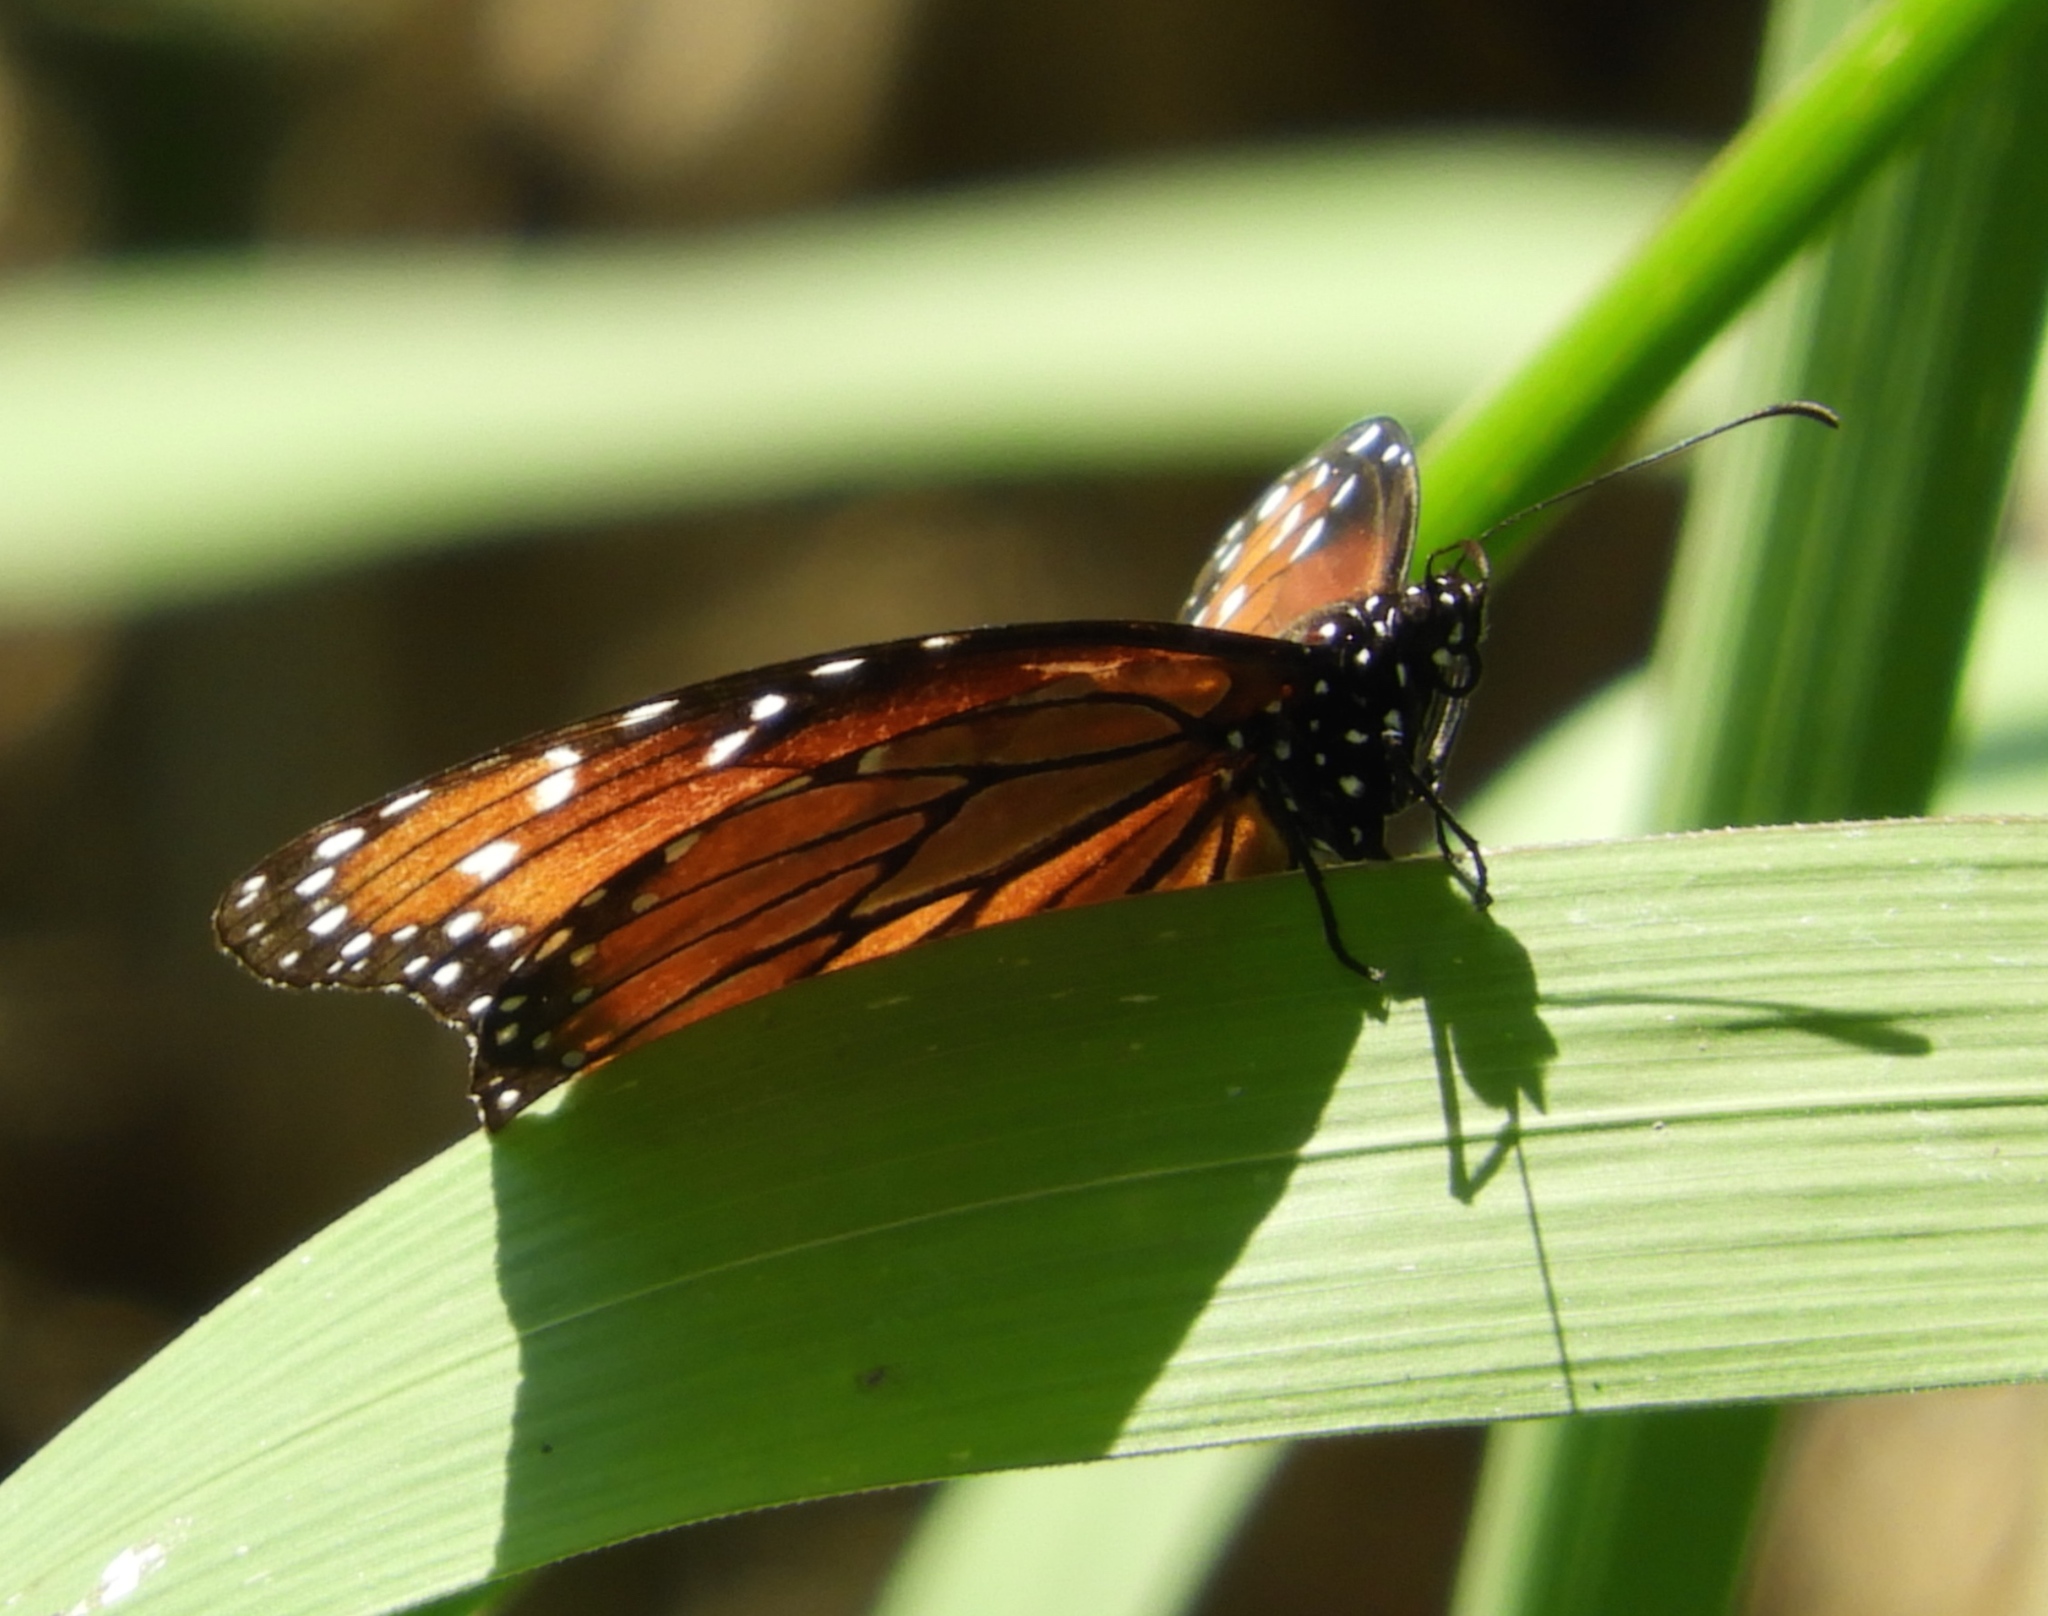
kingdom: Animalia
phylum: Arthropoda
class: Insecta
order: Lepidoptera
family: Nymphalidae
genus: Danaus
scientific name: Danaus eresimus
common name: Soldier
